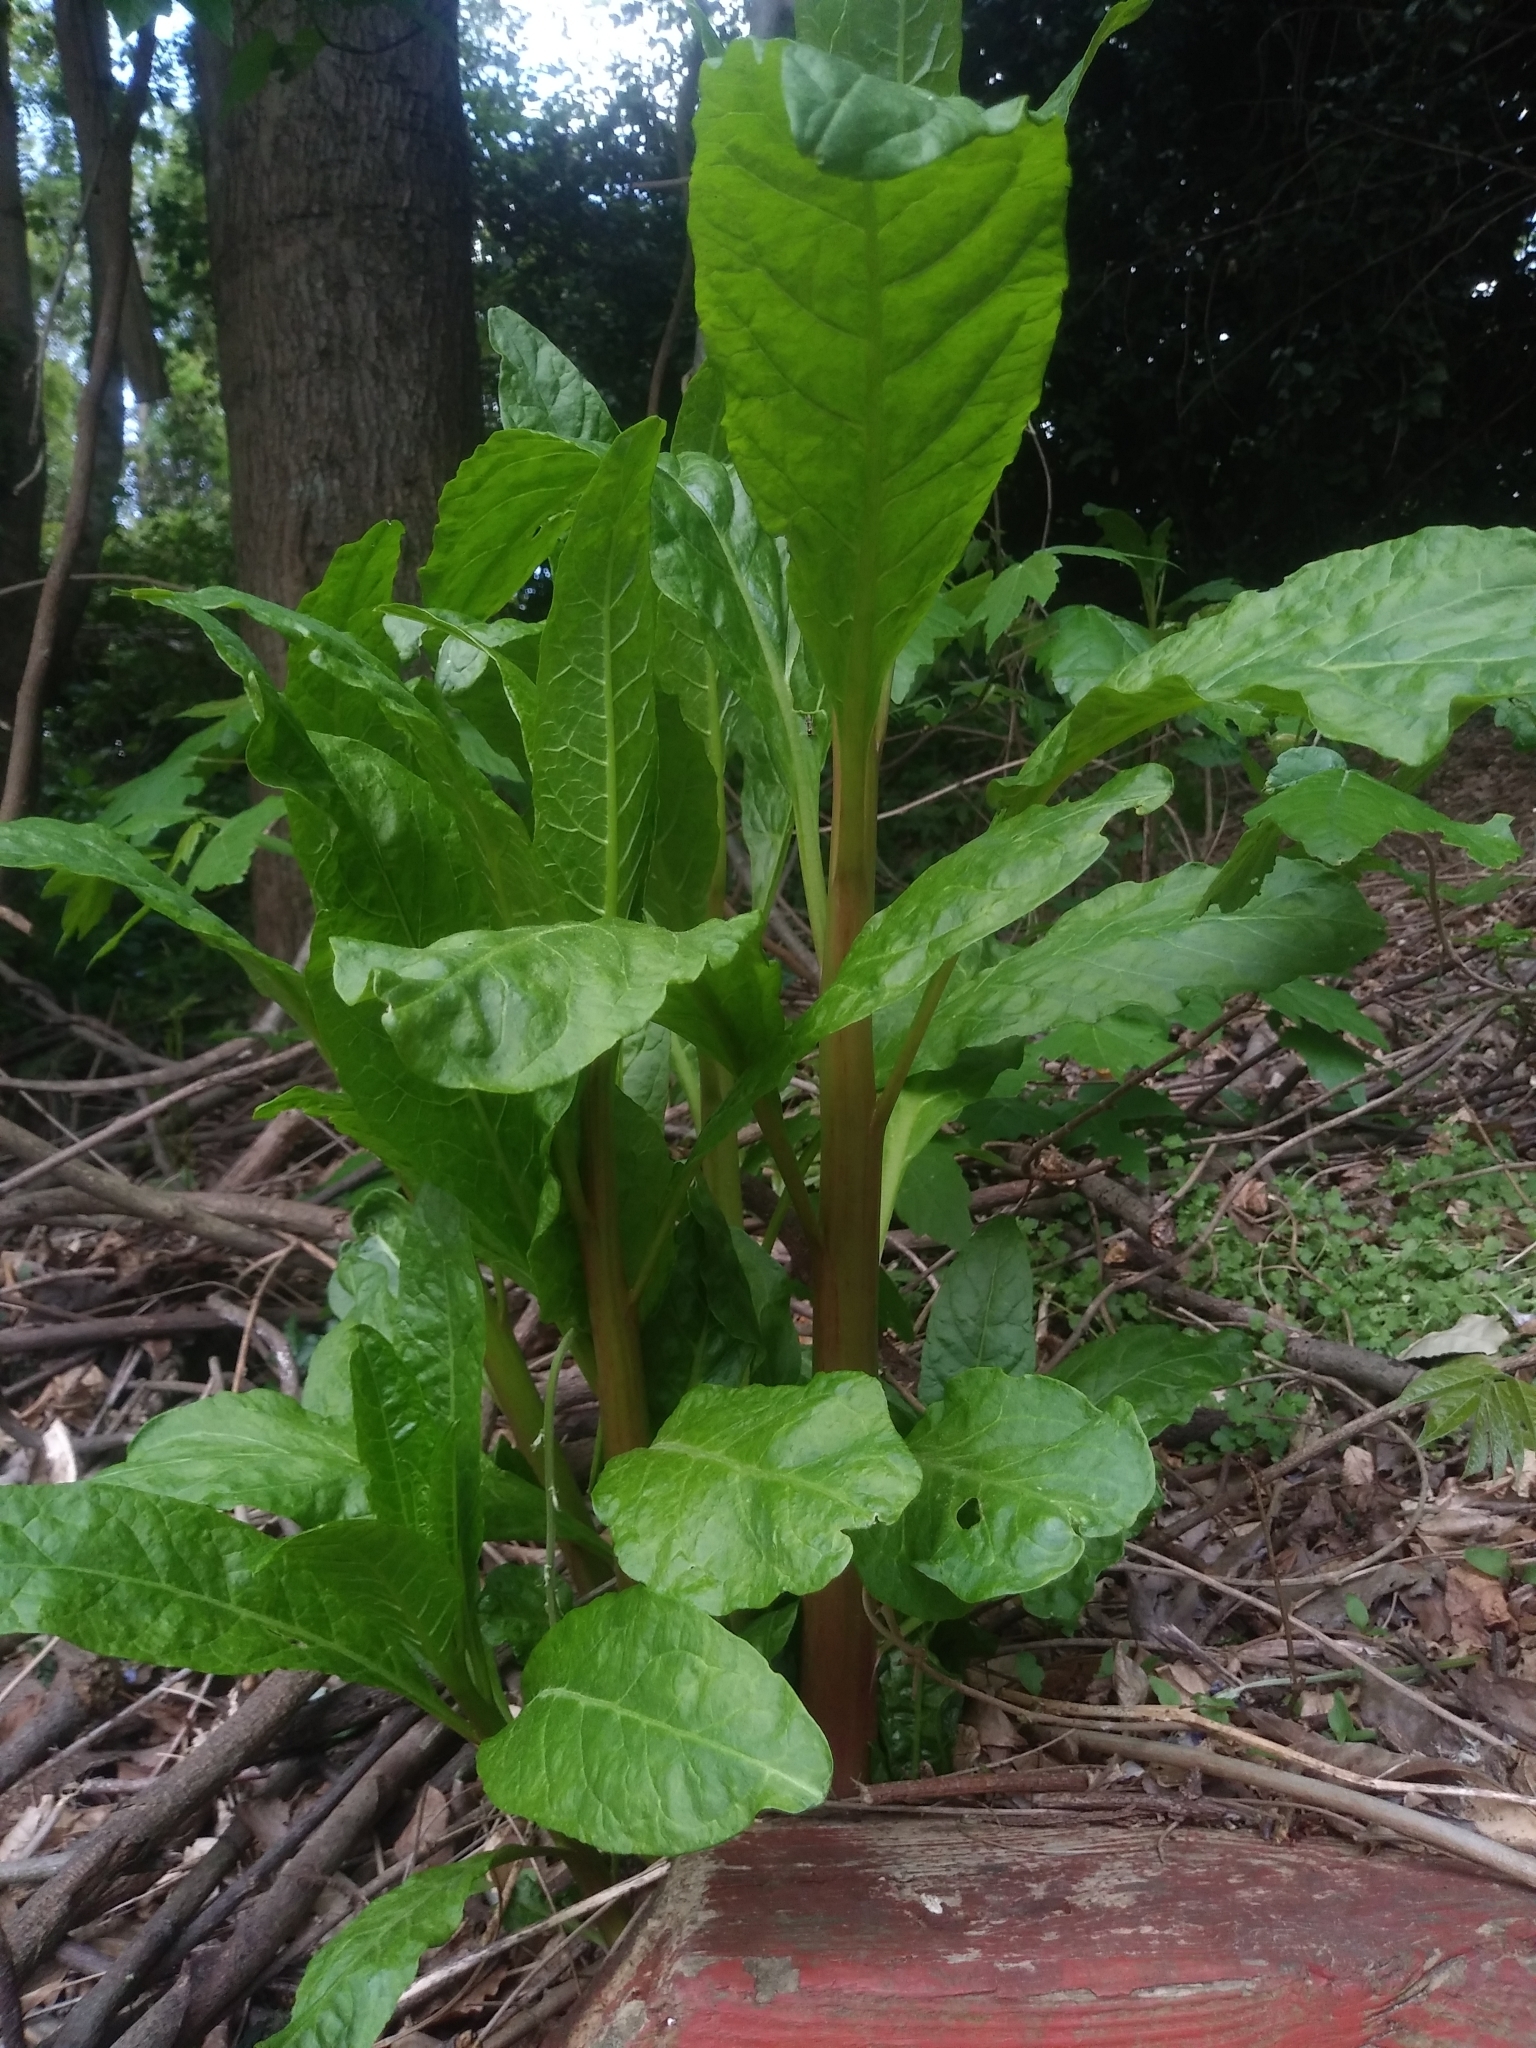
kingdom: Plantae
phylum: Tracheophyta
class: Magnoliopsida
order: Caryophyllales
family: Phytolaccaceae
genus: Phytolacca
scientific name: Phytolacca americana
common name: American pokeweed
